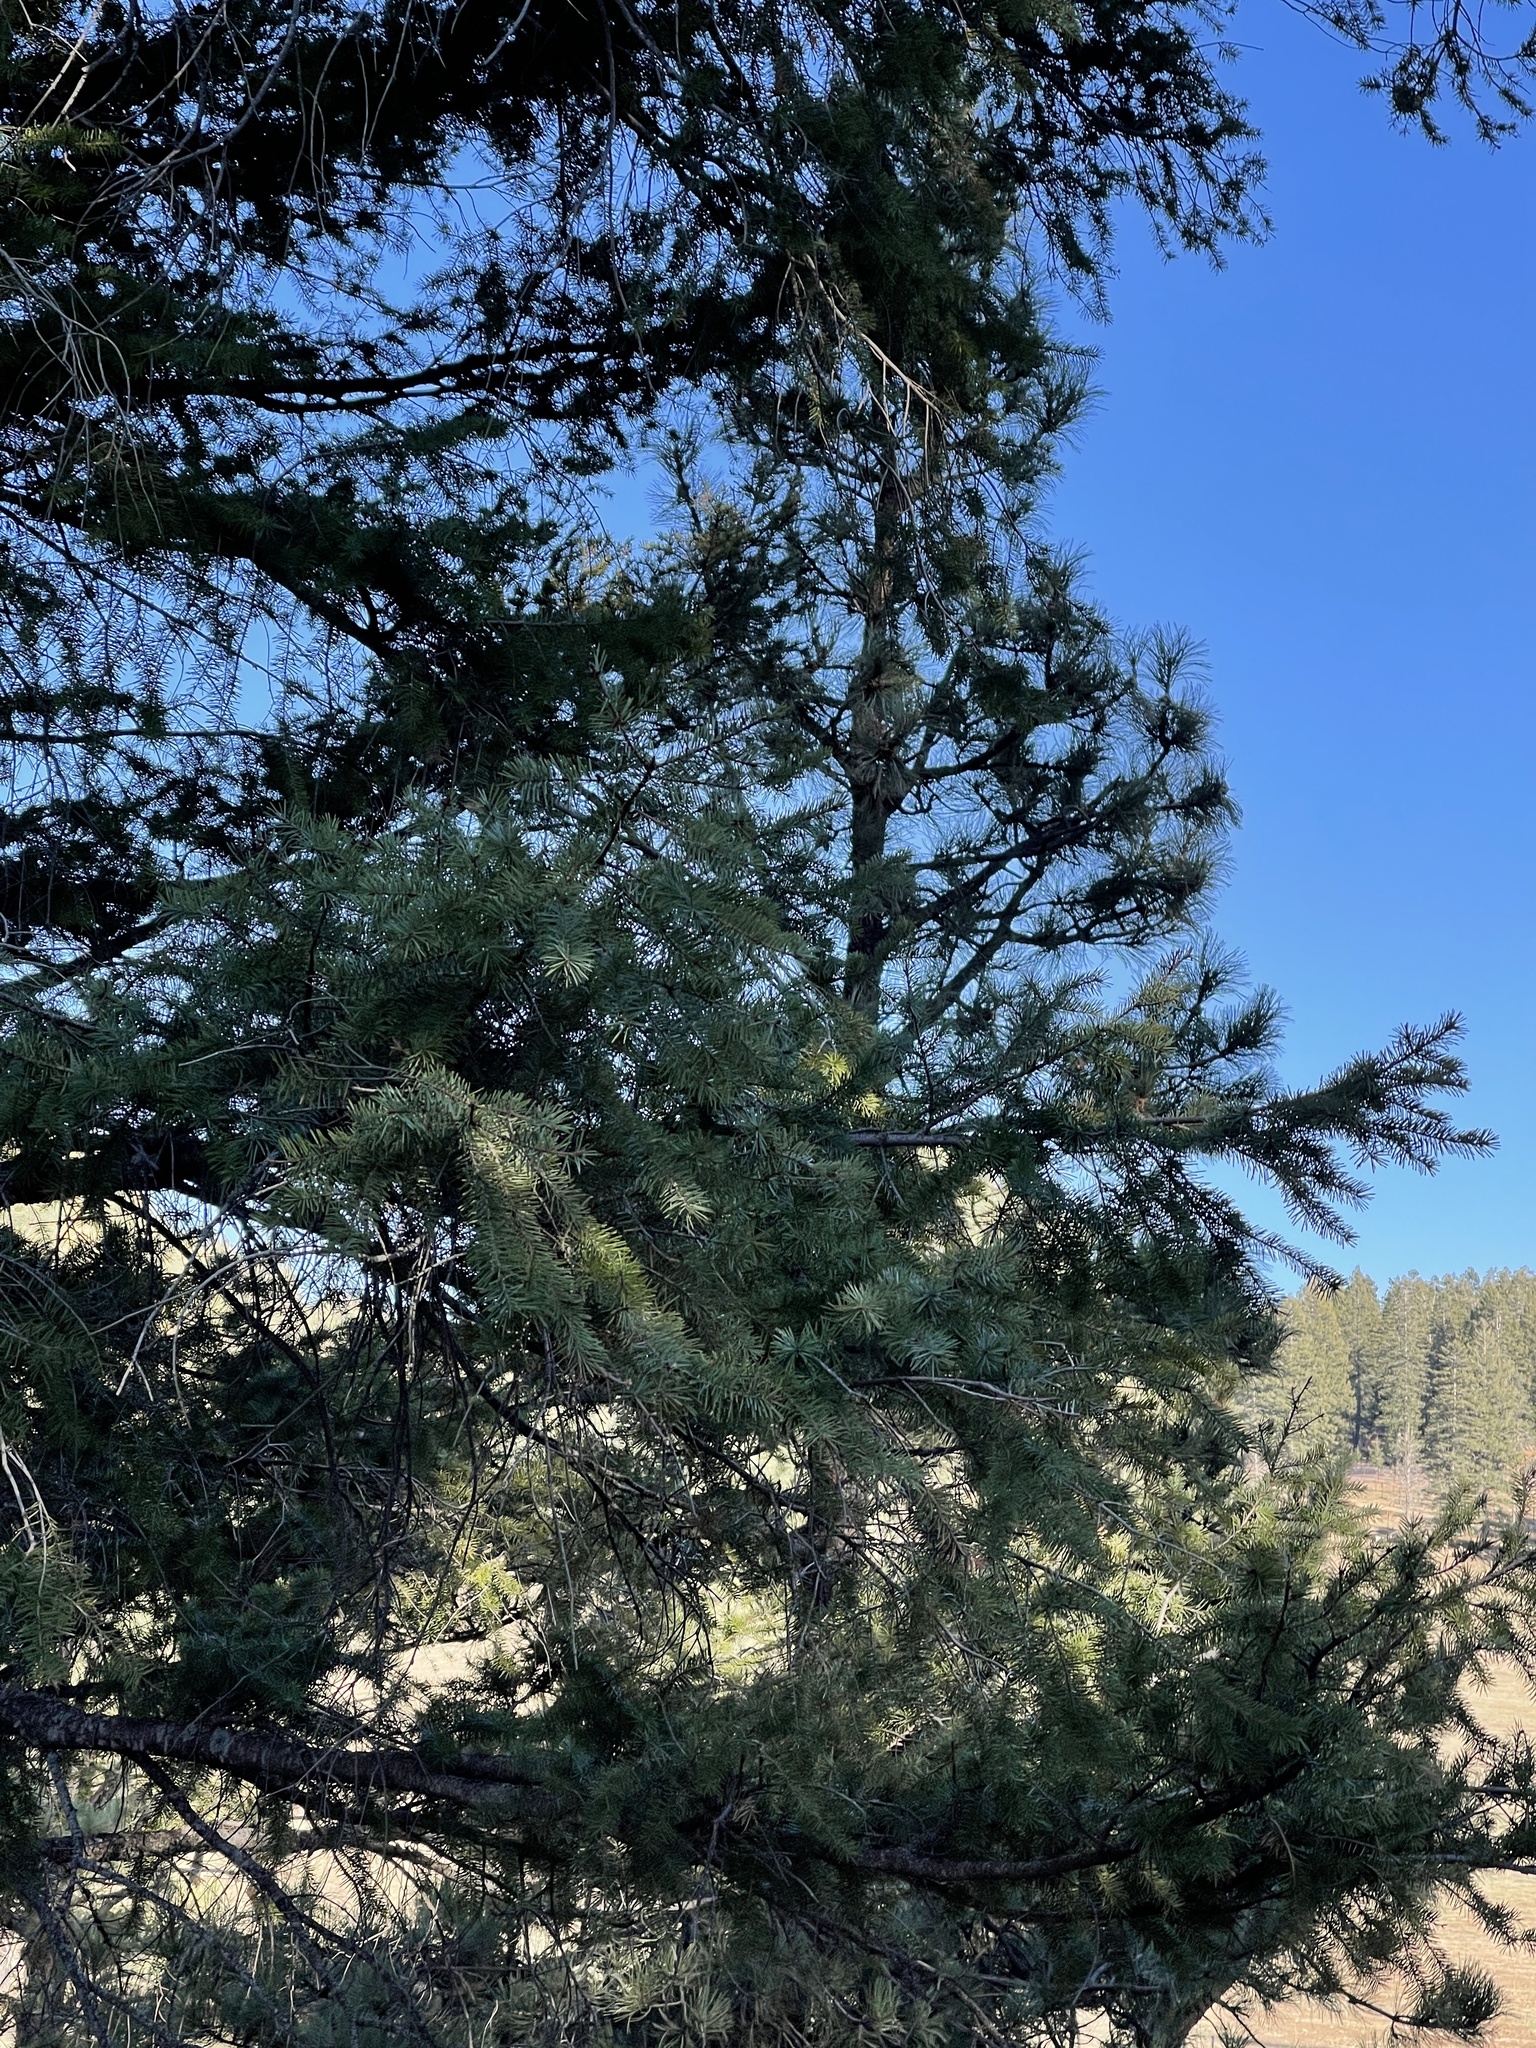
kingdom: Plantae
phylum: Tracheophyta
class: Pinopsida
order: Pinales
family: Pinaceae
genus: Pseudotsuga
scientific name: Pseudotsuga menziesii
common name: Douglas fir
